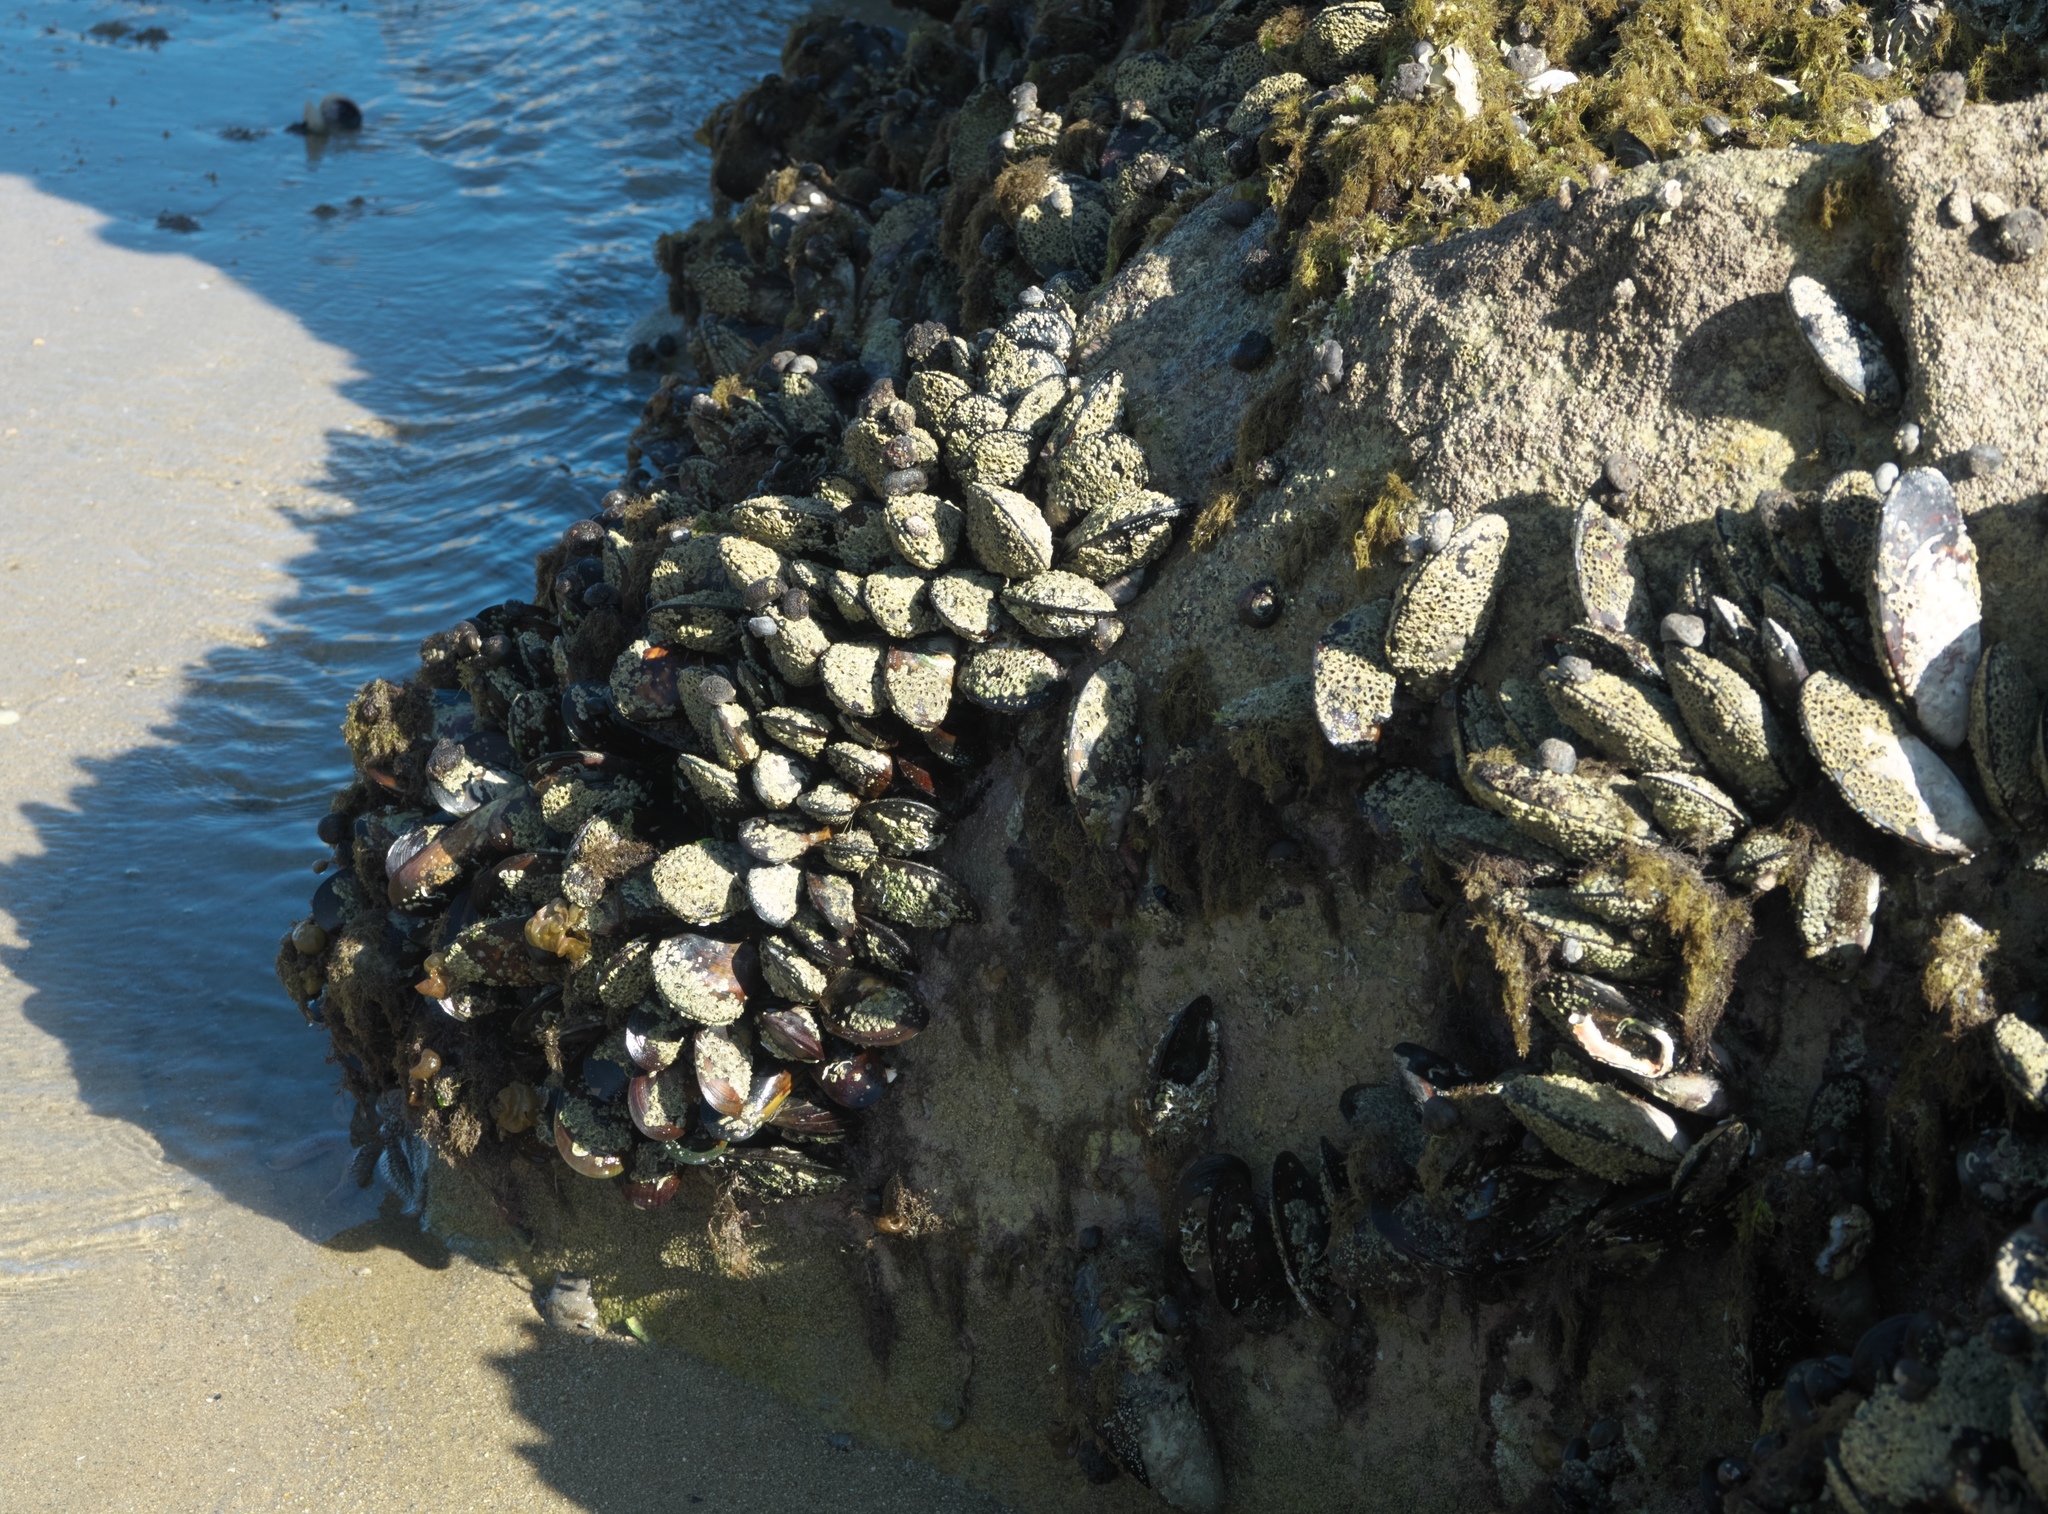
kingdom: Animalia
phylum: Mollusca
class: Bivalvia
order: Mytilida
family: Mytilidae
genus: Perna
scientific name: Perna canaliculus
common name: New zealand greenshelltm
